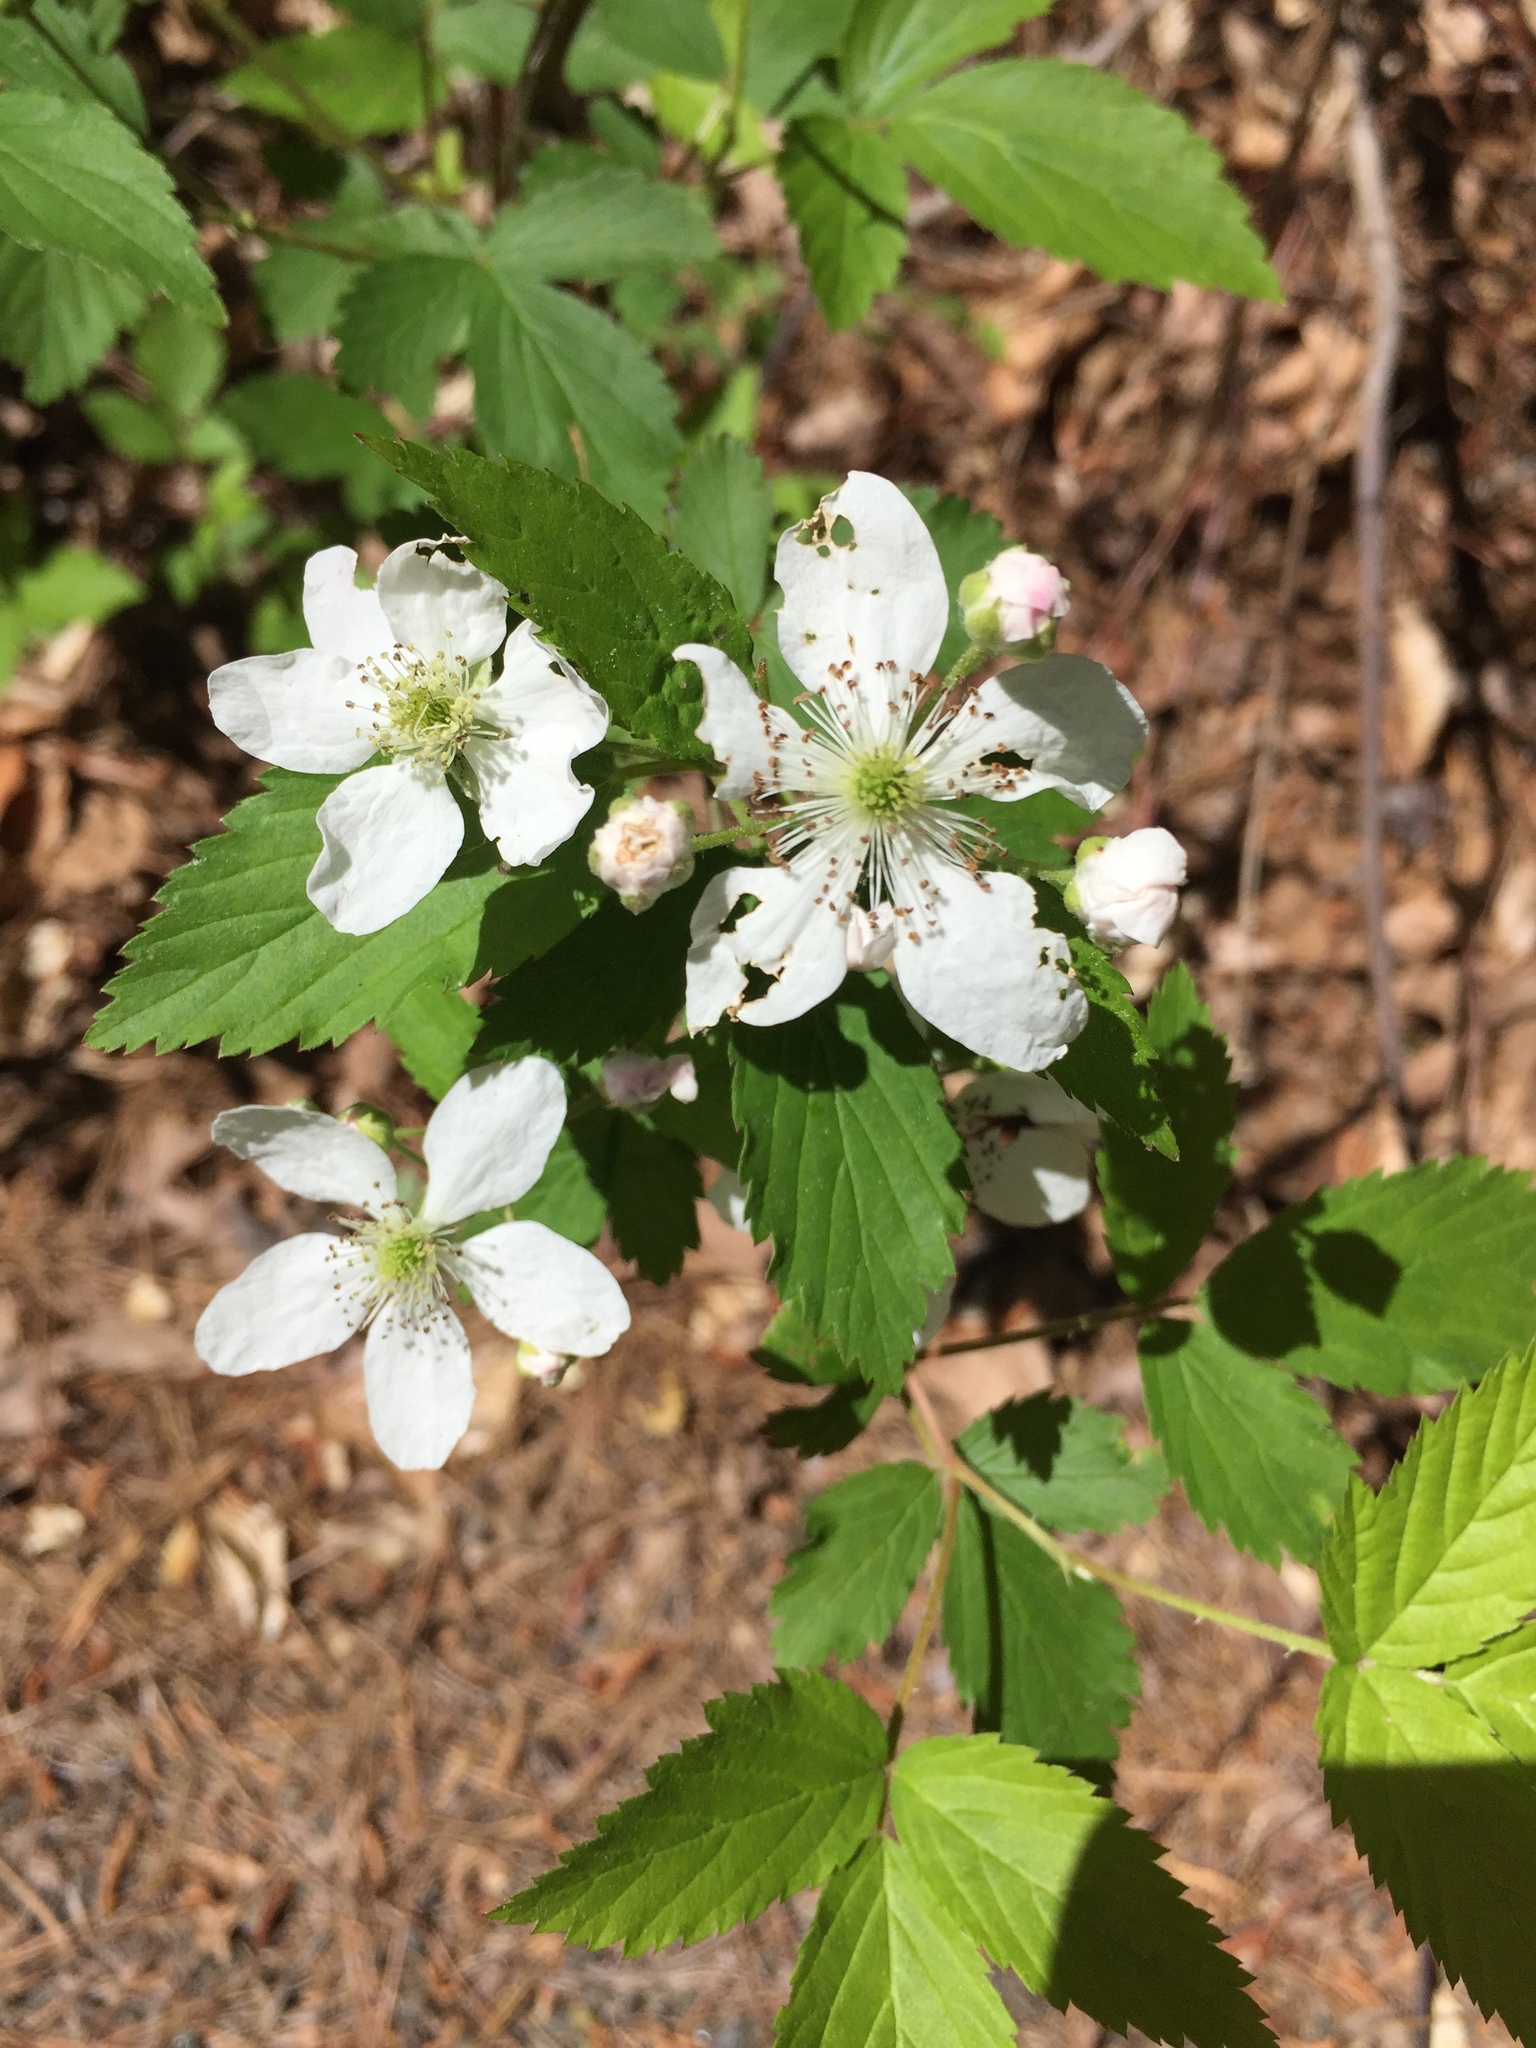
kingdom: Plantae
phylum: Tracheophyta
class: Magnoliopsida
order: Rosales
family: Rosaceae
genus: Rubus
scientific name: Rubus allegheniensis
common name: Allegheny blackberry
